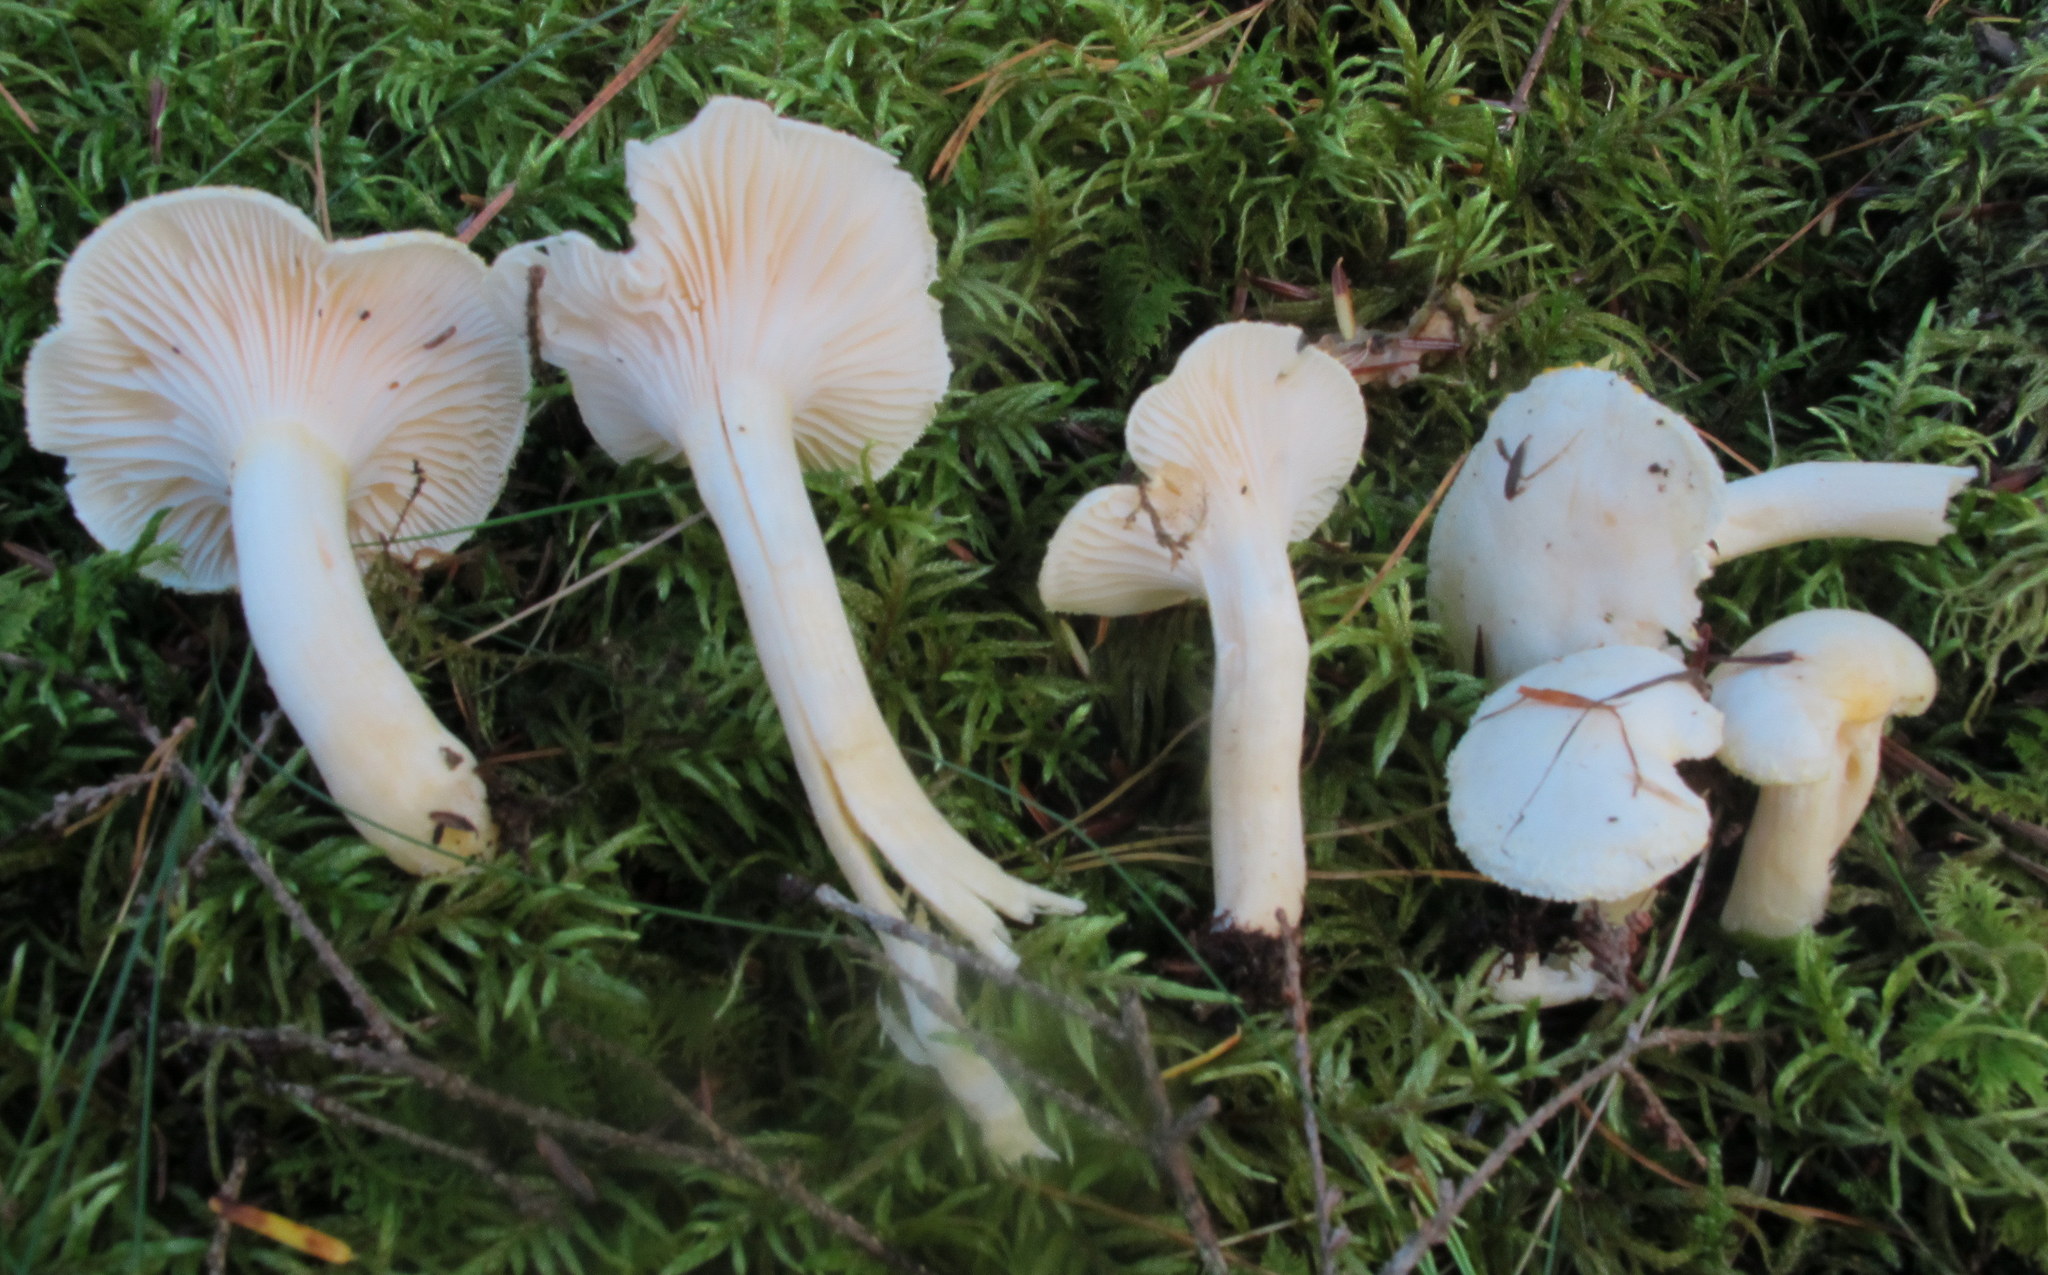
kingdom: Fungi
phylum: Basidiomycota
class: Agaricomycetes
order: Agaricales
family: Hygrophoraceae
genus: Hygrophorus
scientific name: Hygrophorus chrysodon
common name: Gold flecked woodwax
